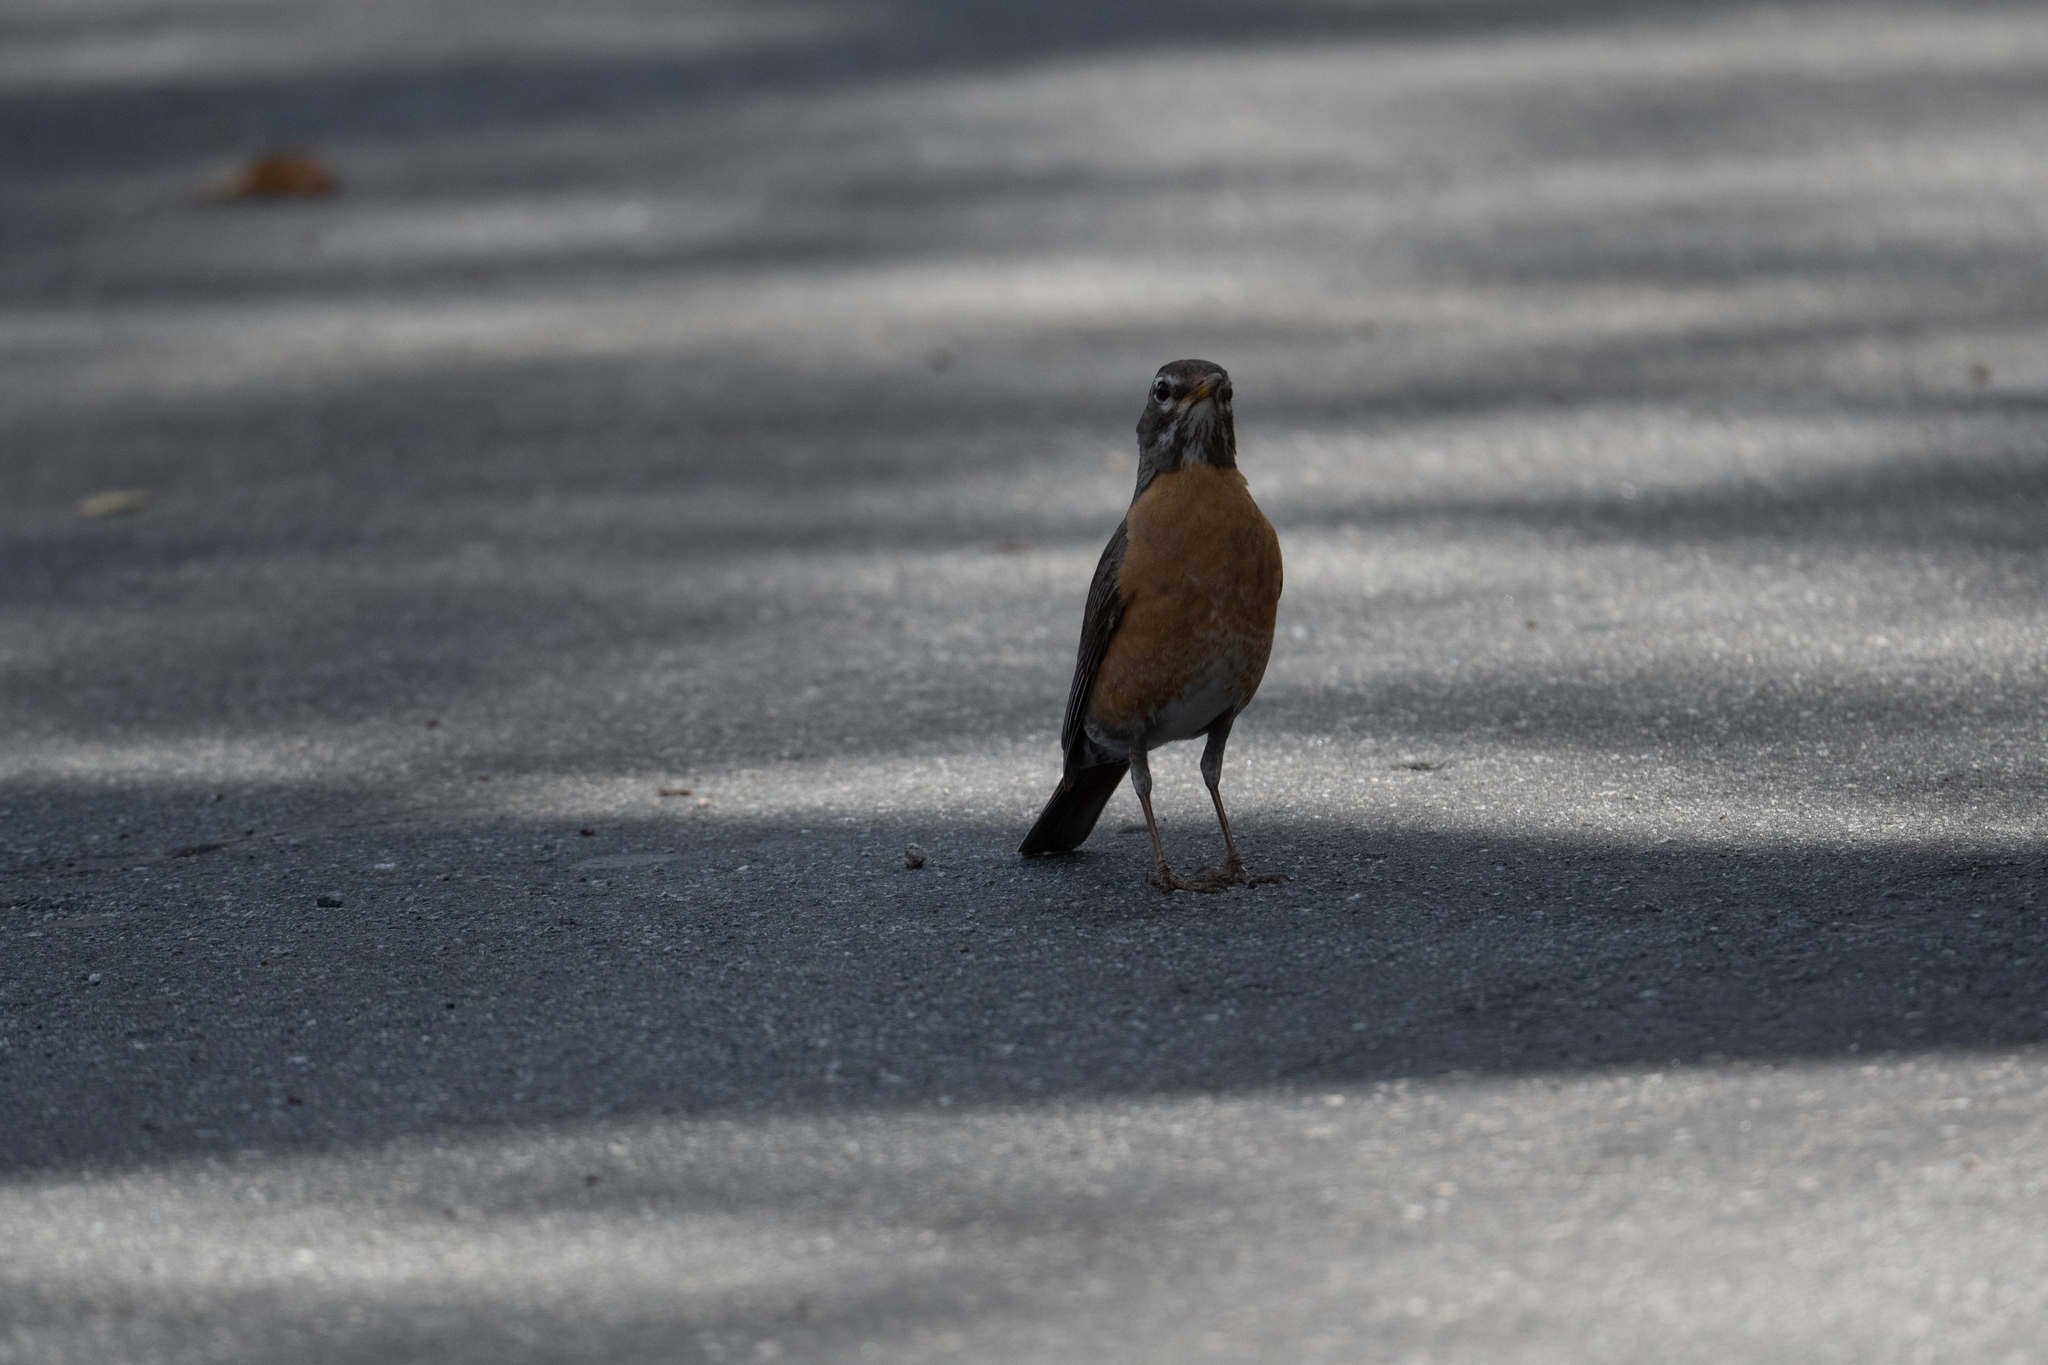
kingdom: Animalia
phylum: Chordata
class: Aves
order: Passeriformes
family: Turdidae
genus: Turdus
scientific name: Turdus migratorius
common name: American robin
